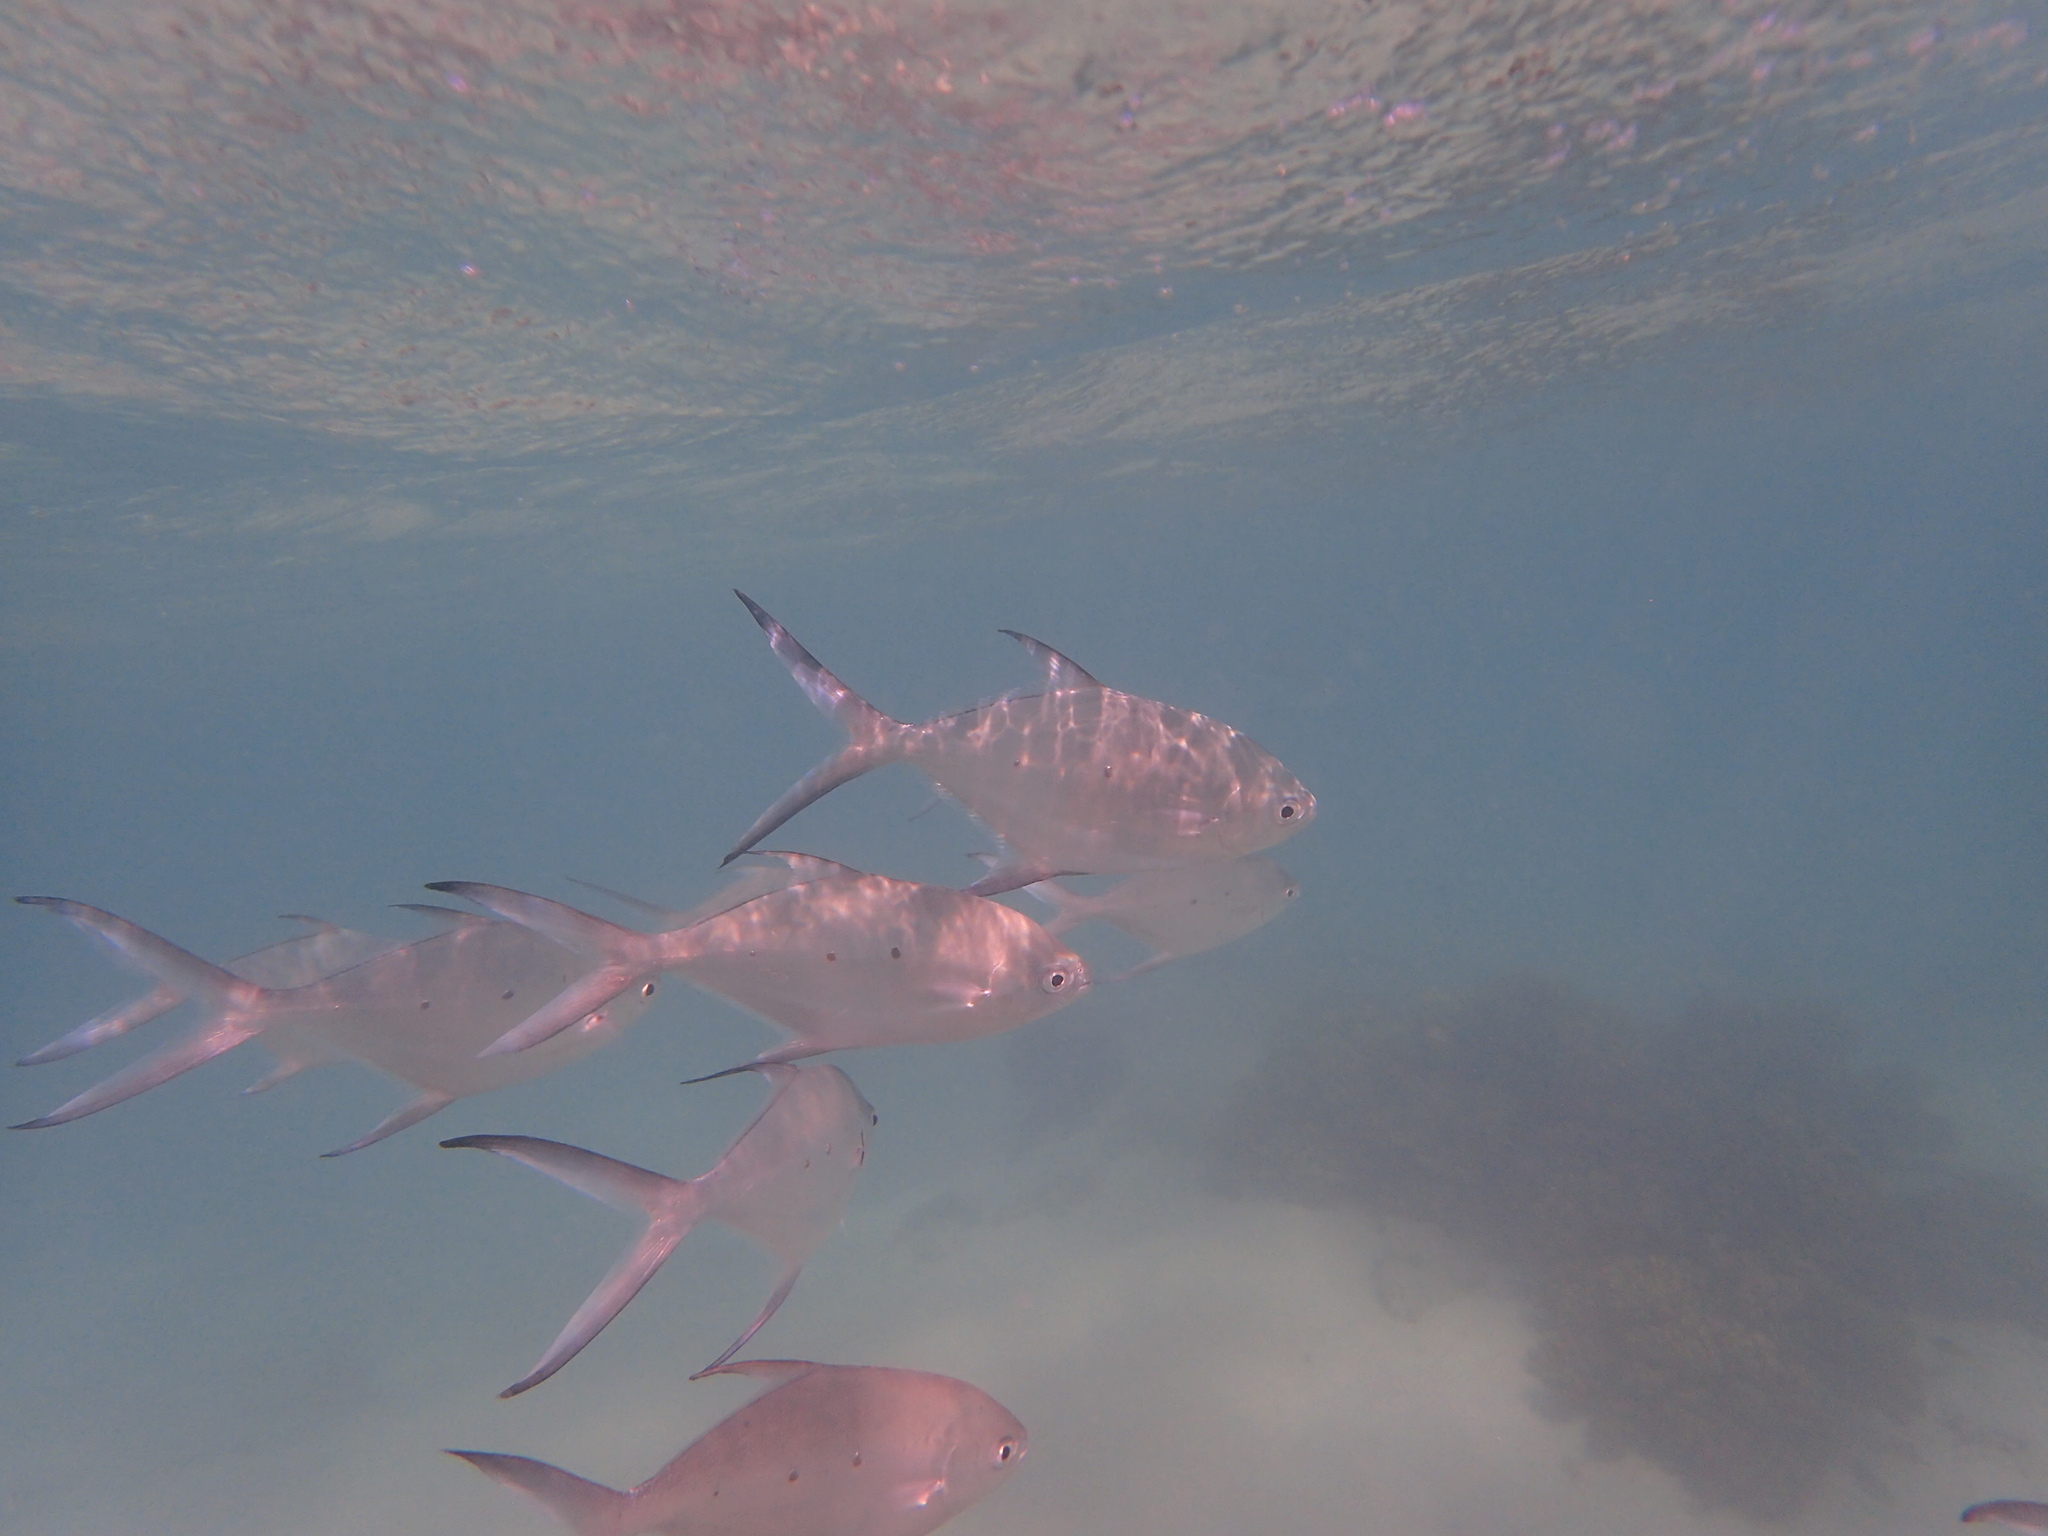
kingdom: Animalia
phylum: Chordata
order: Perciformes
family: Carangidae
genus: Trachinotus
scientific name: Trachinotus baillonii
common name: Smallspotted dart
